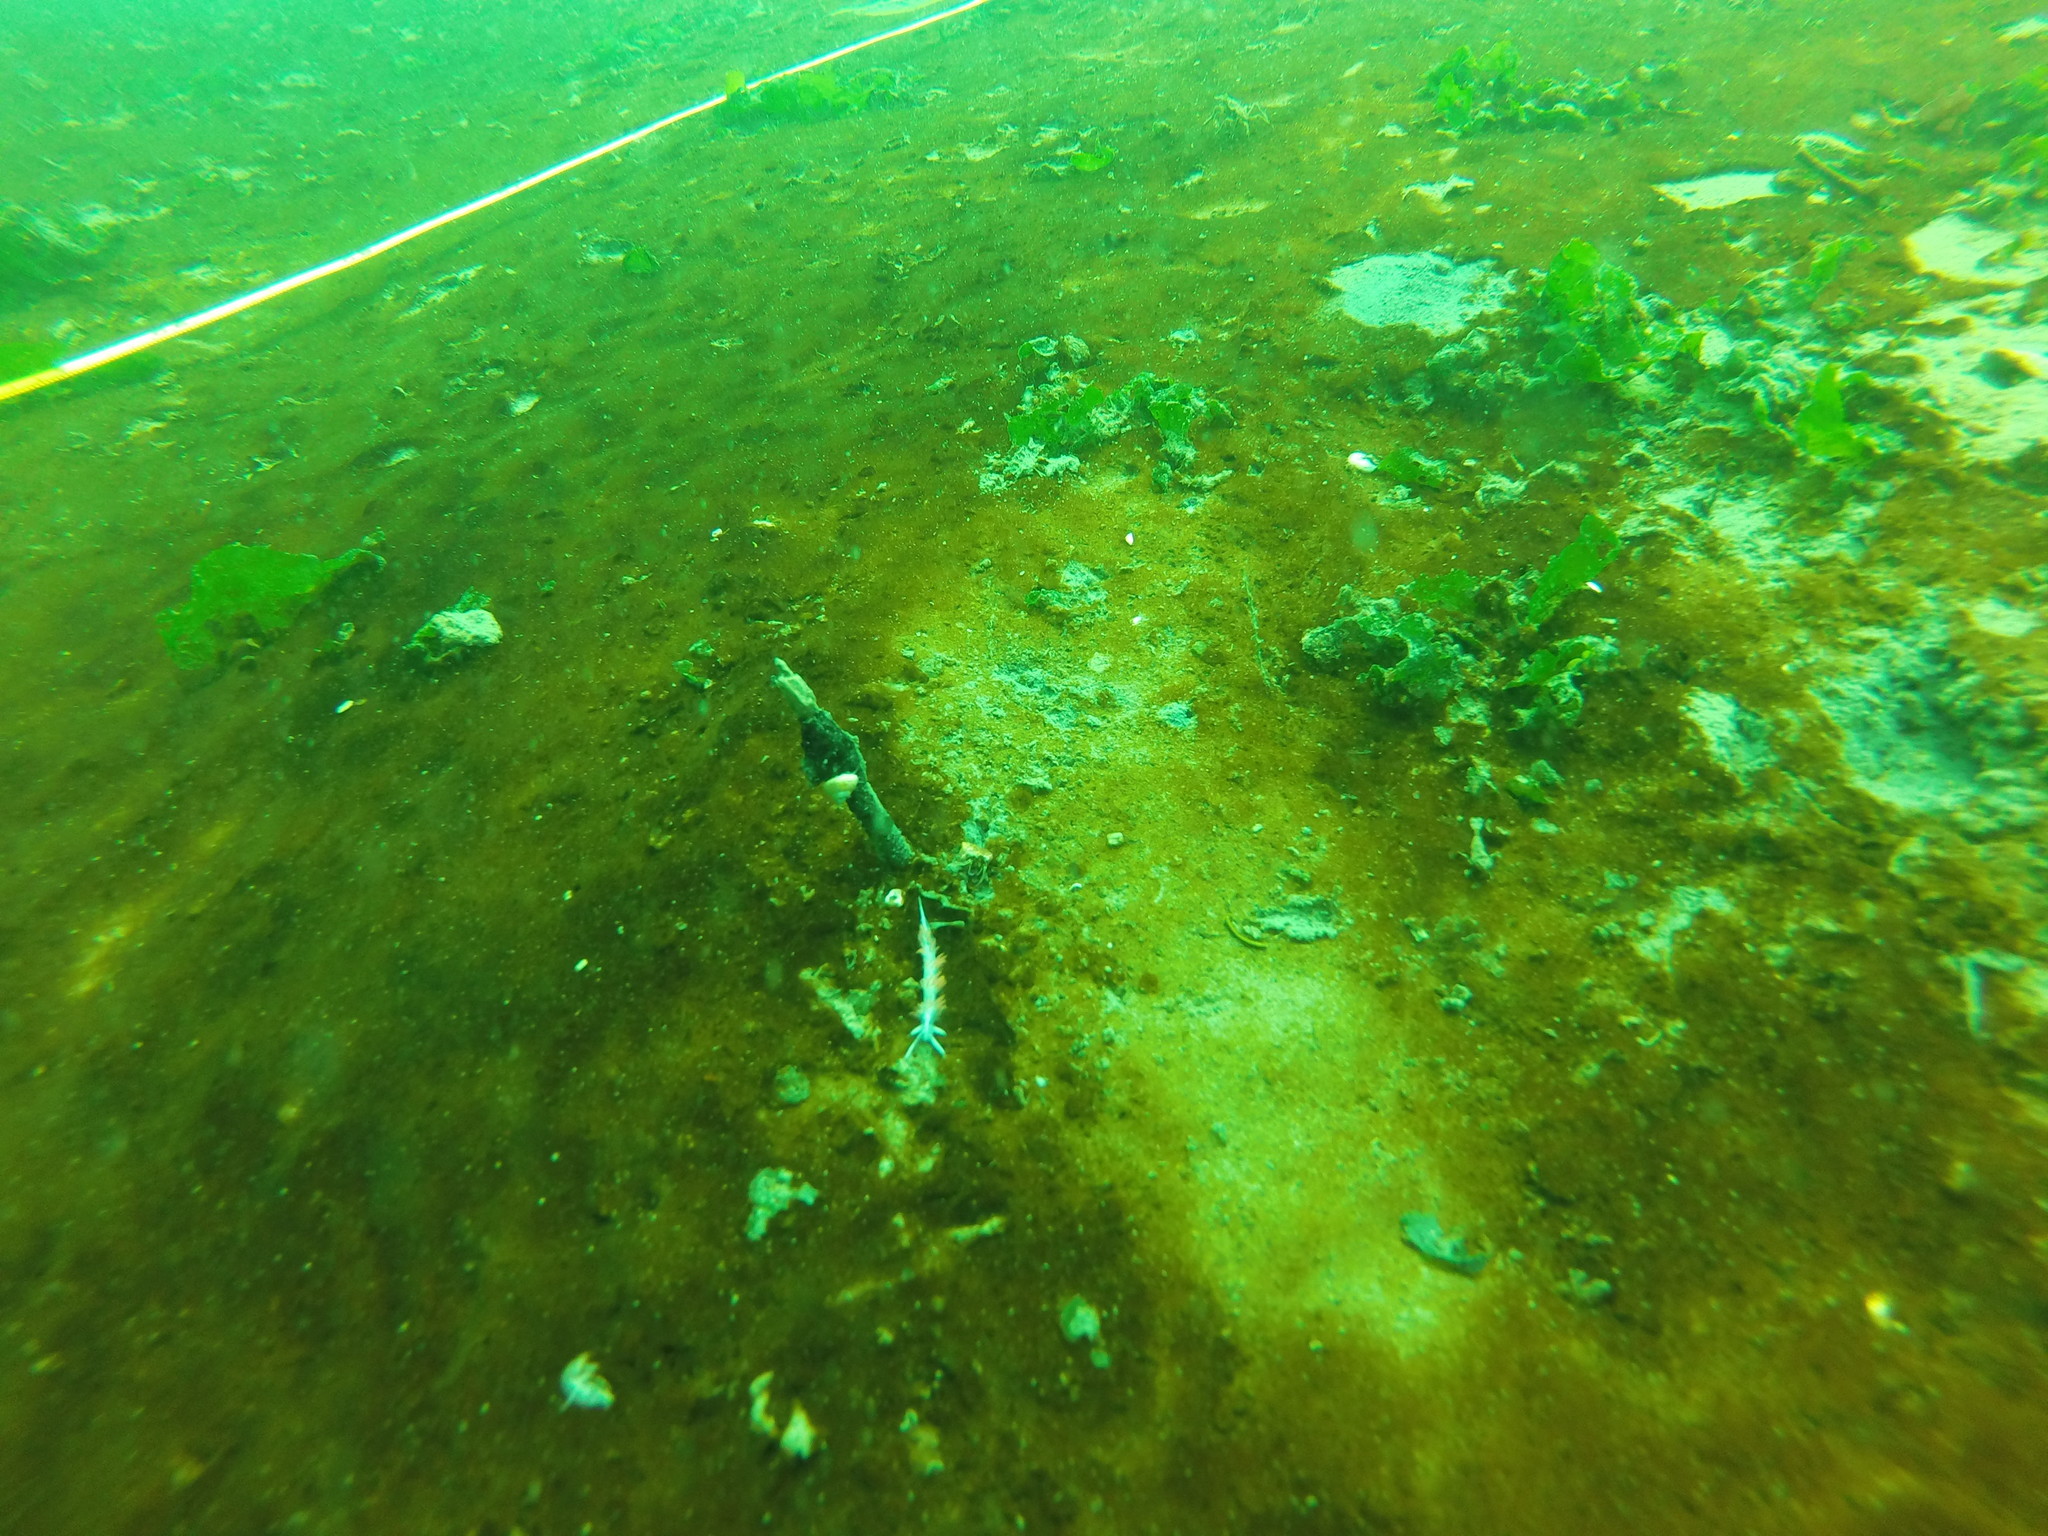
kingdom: Animalia
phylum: Mollusca
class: Gastropoda
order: Nudibranchia
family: Coryphellidae
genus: Coryphella
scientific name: Coryphella trilineata
